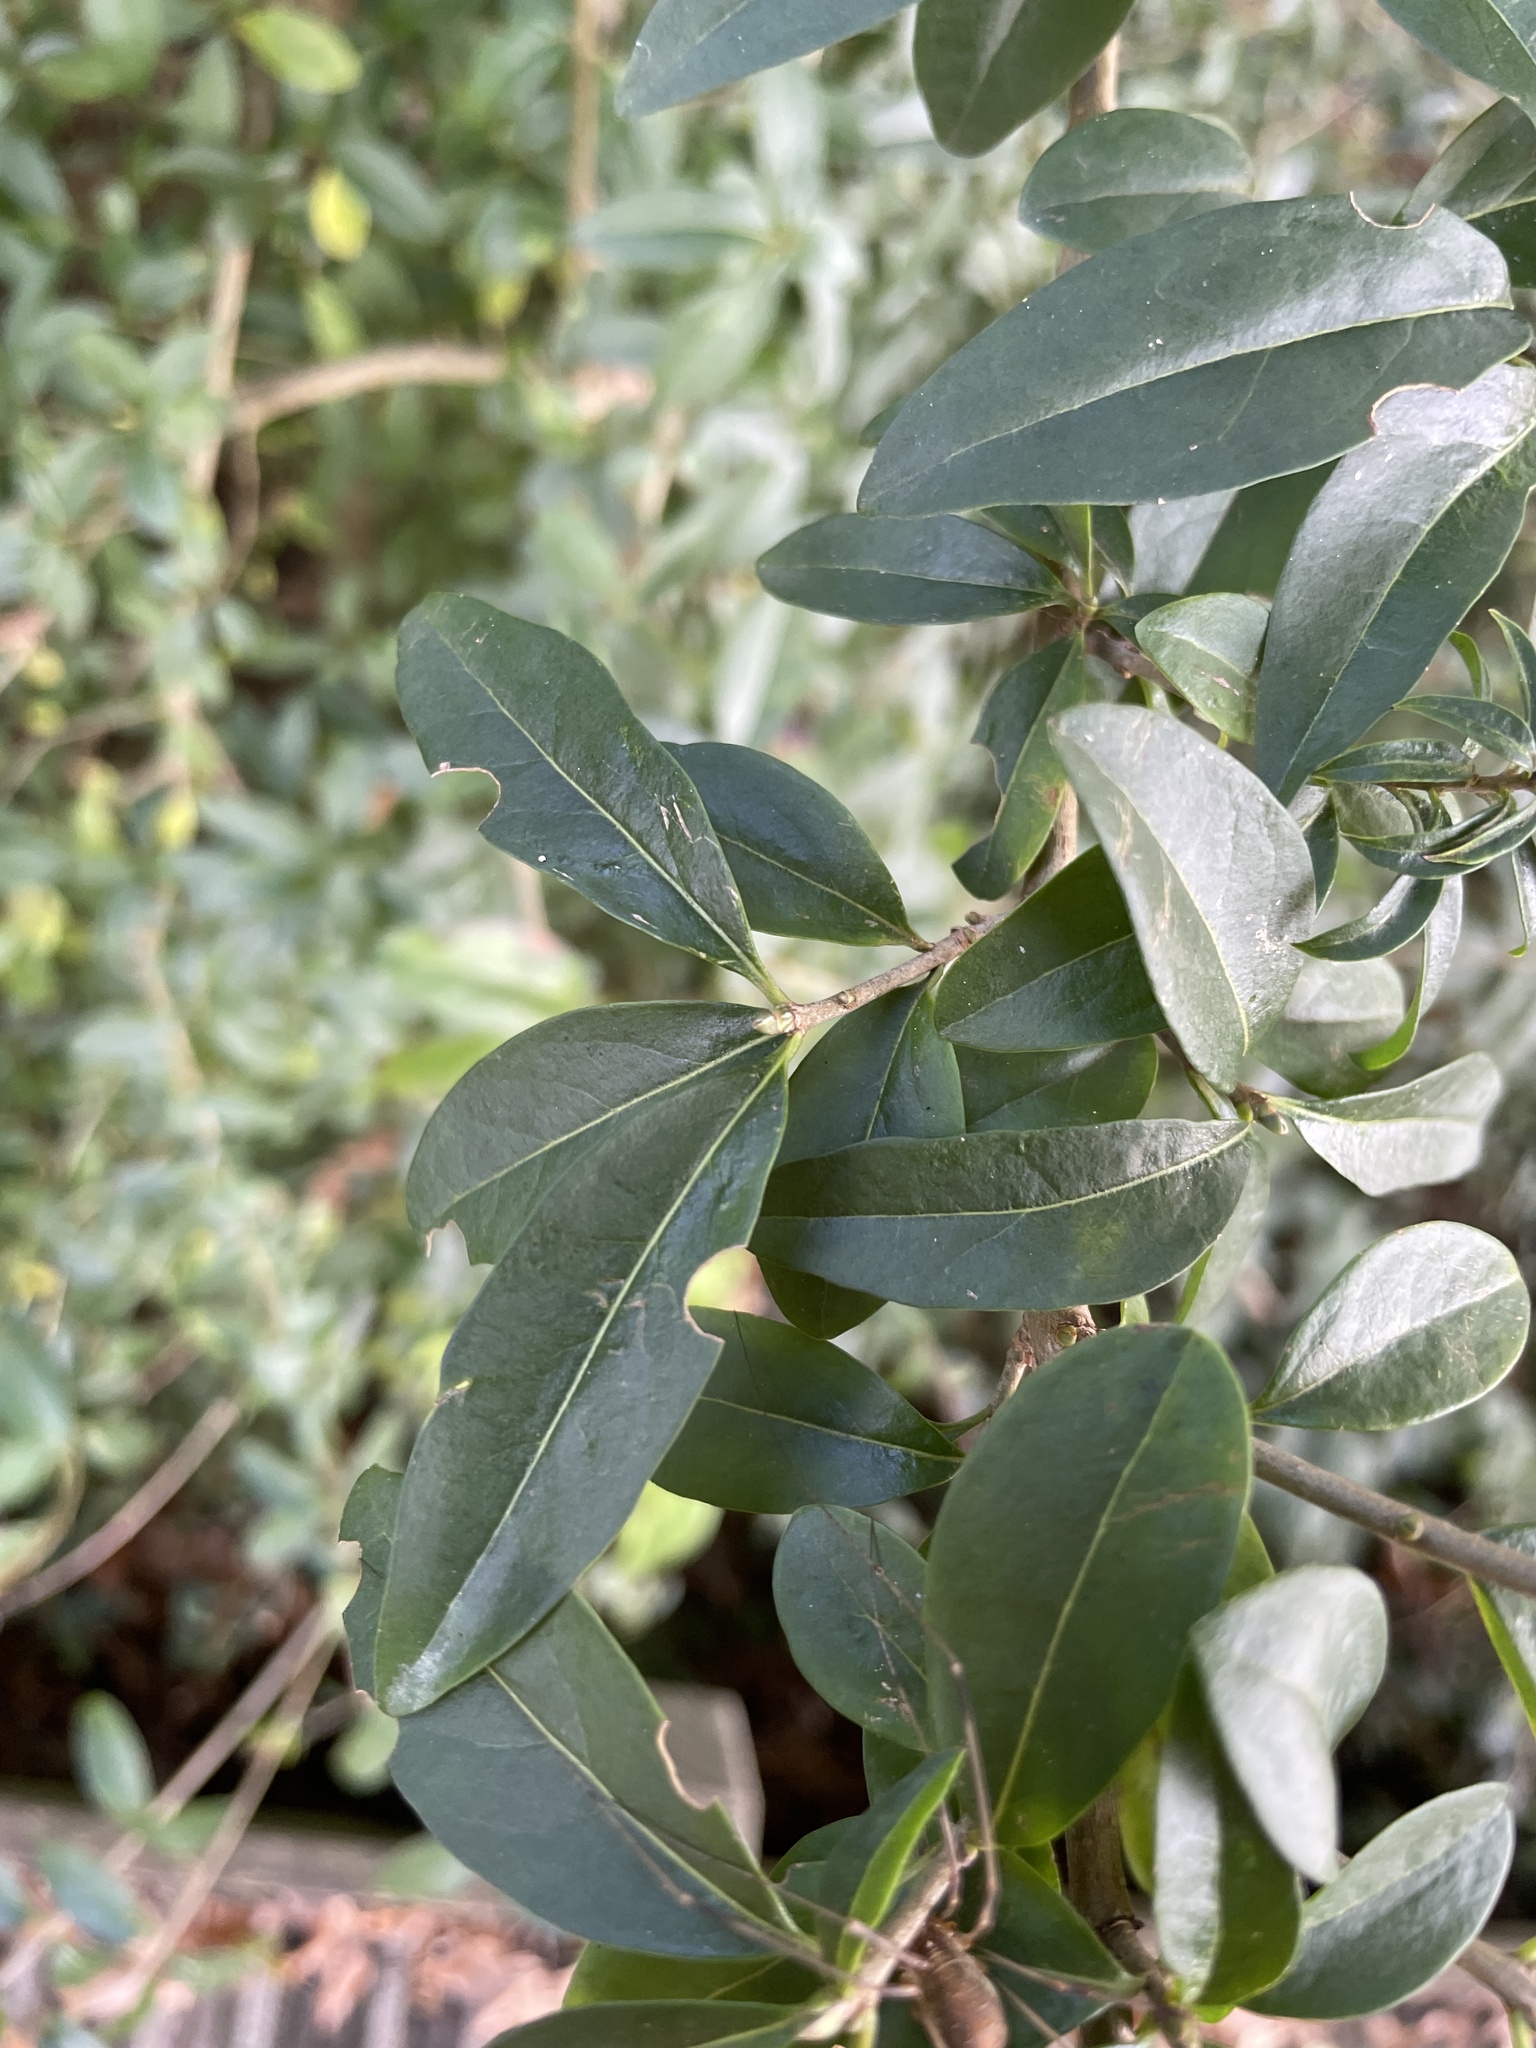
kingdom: Plantae
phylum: Tracheophyta
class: Magnoliopsida
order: Lamiales
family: Oleaceae
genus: Ligustrum
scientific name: Ligustrum vulgare
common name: Wild privet
